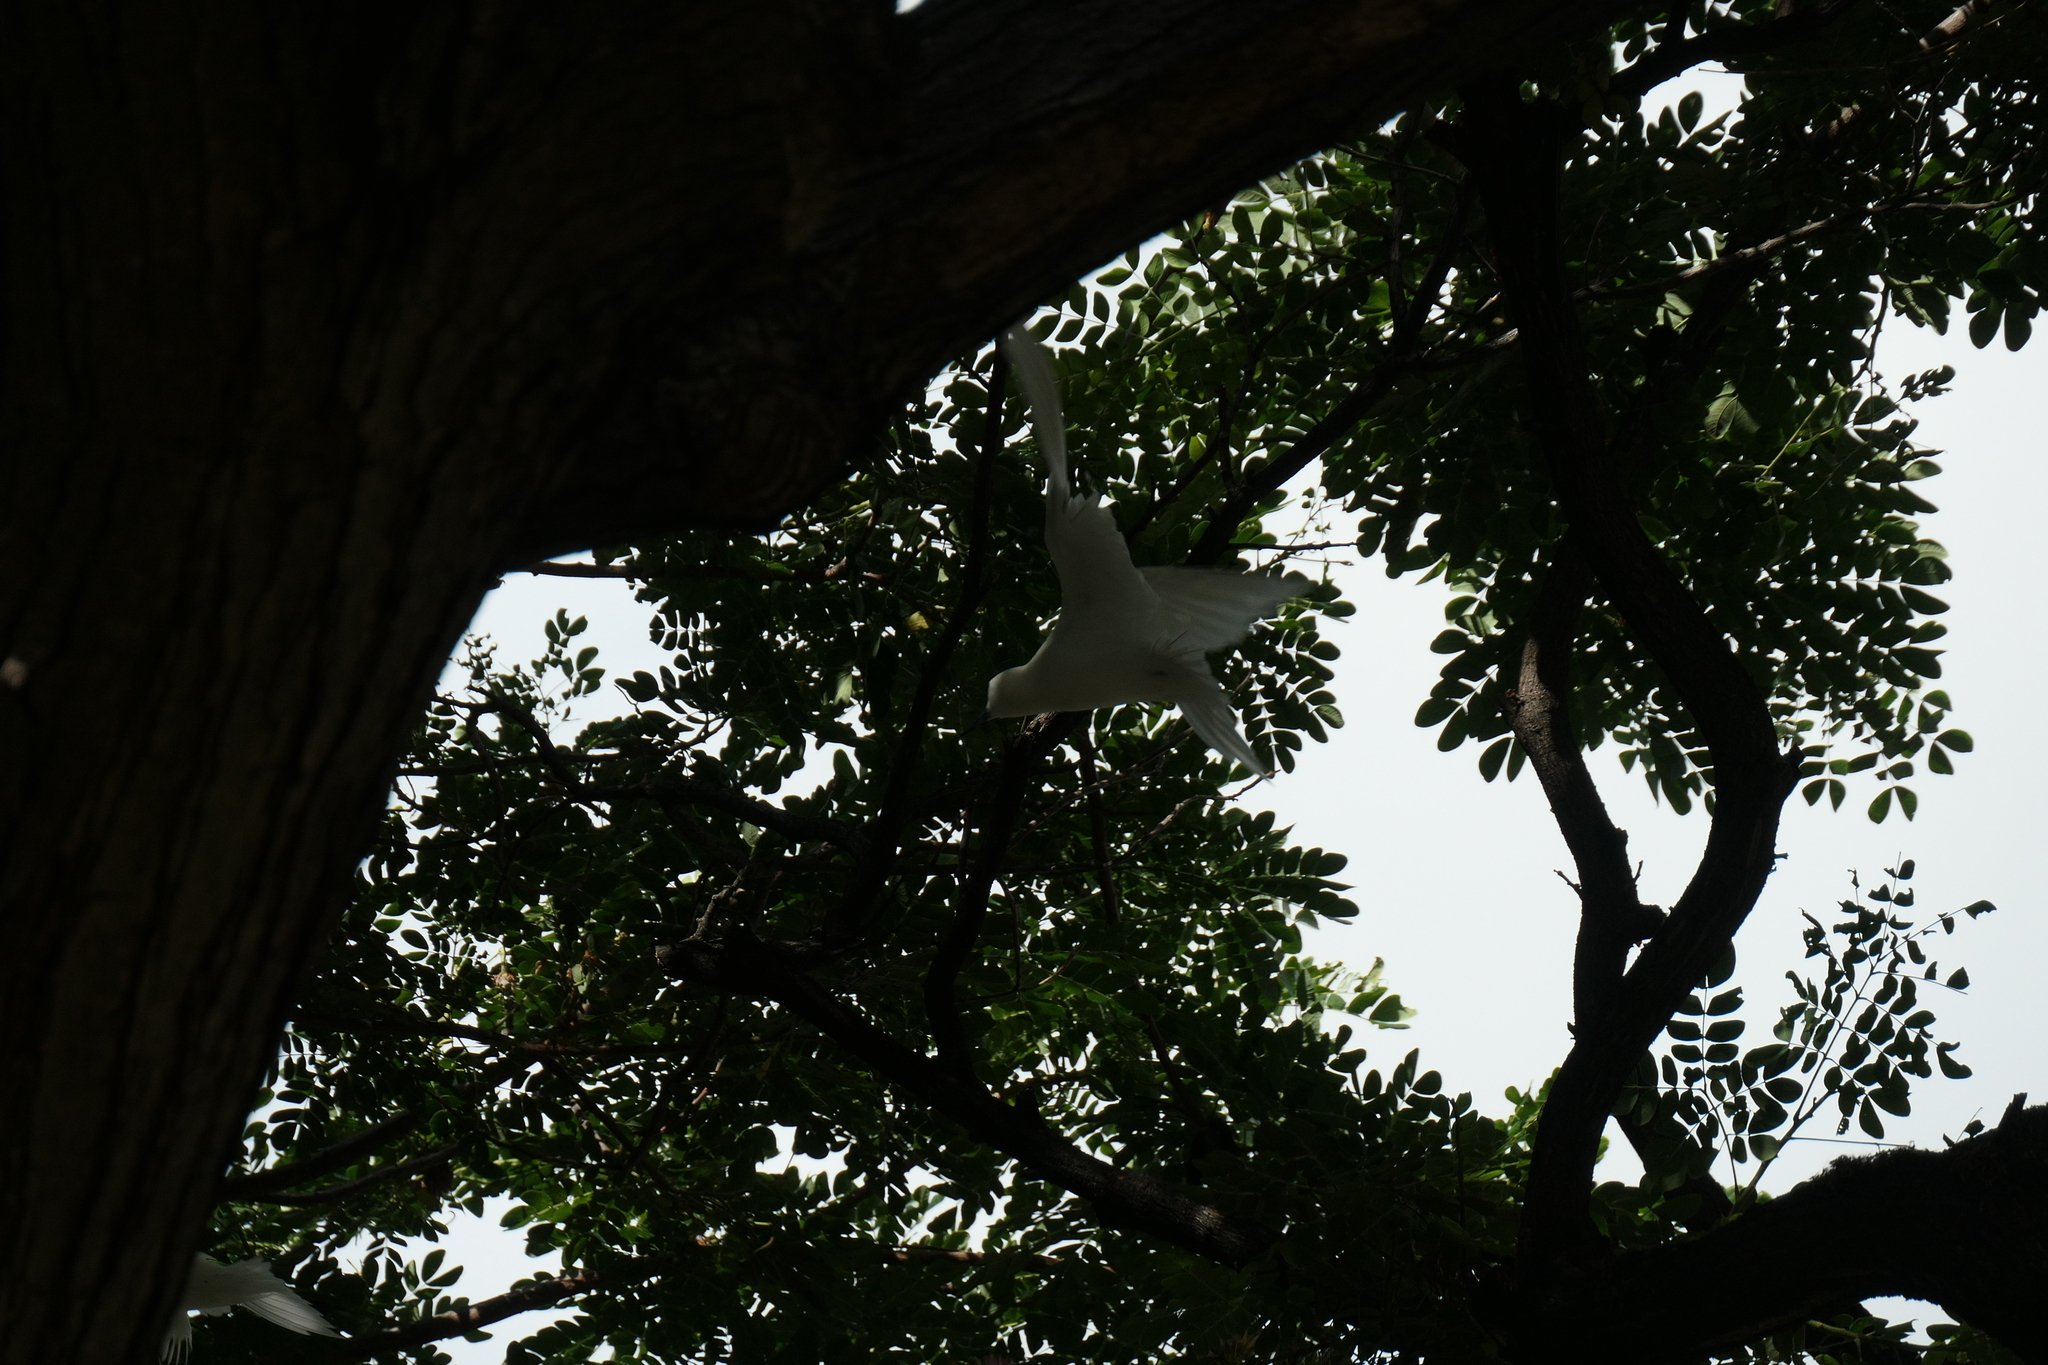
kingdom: Animalia
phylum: Chordata
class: Aves
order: Charadriiformes
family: Laridae
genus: Gygis
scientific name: Gygis alba
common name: White tern
